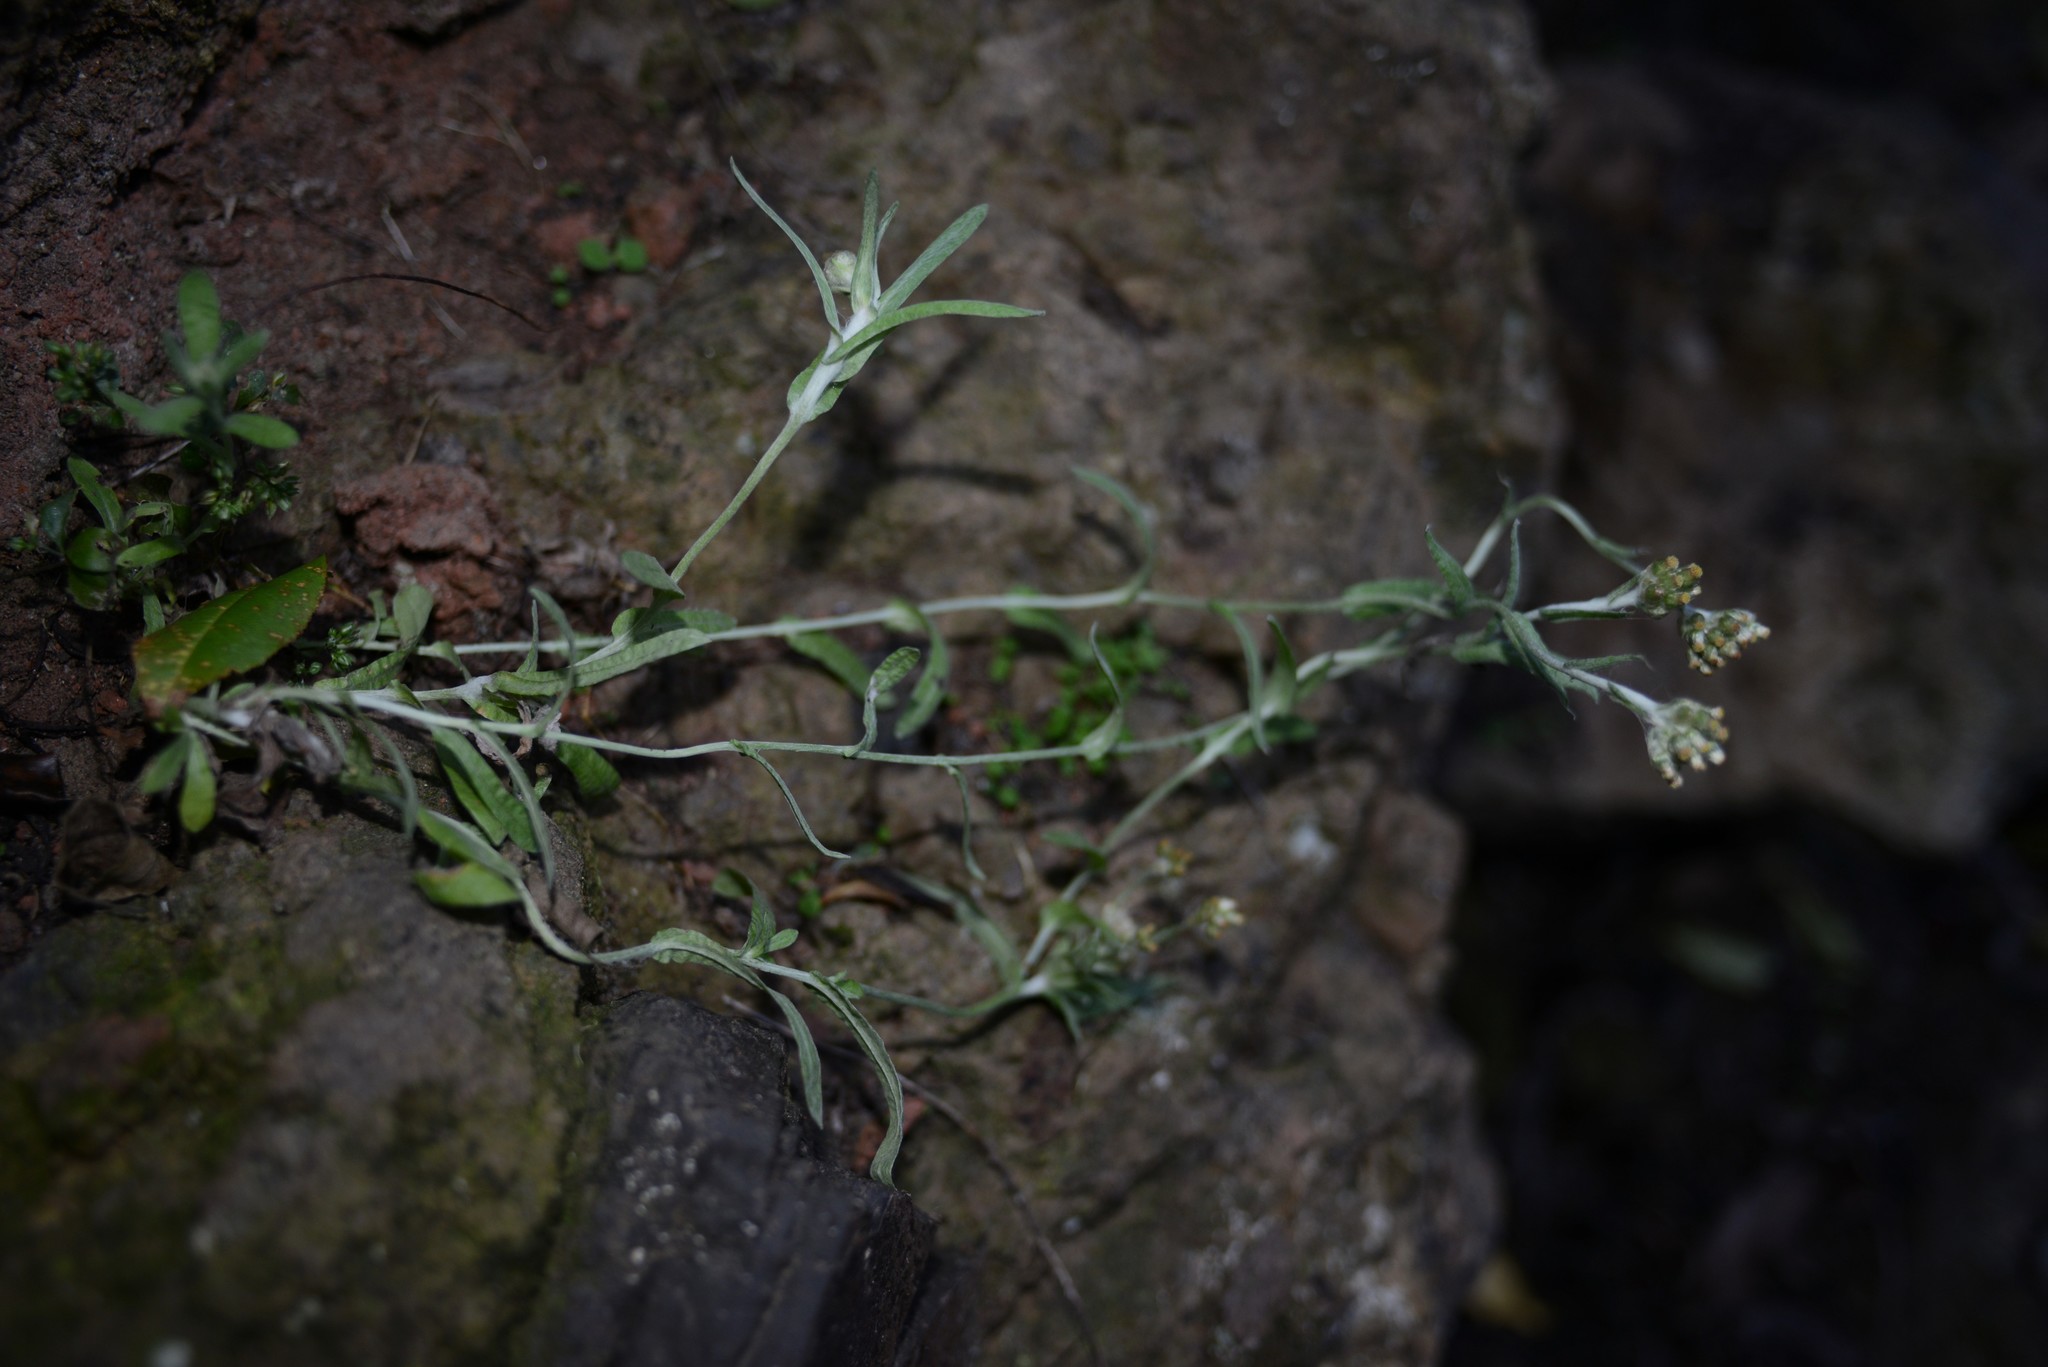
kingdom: Plantae
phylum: Tracheophyta
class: Magnoliopsida
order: Asterales
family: Asteraceae
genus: Helichrysum
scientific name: Helichrysum luteoalbum
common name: Daisy
